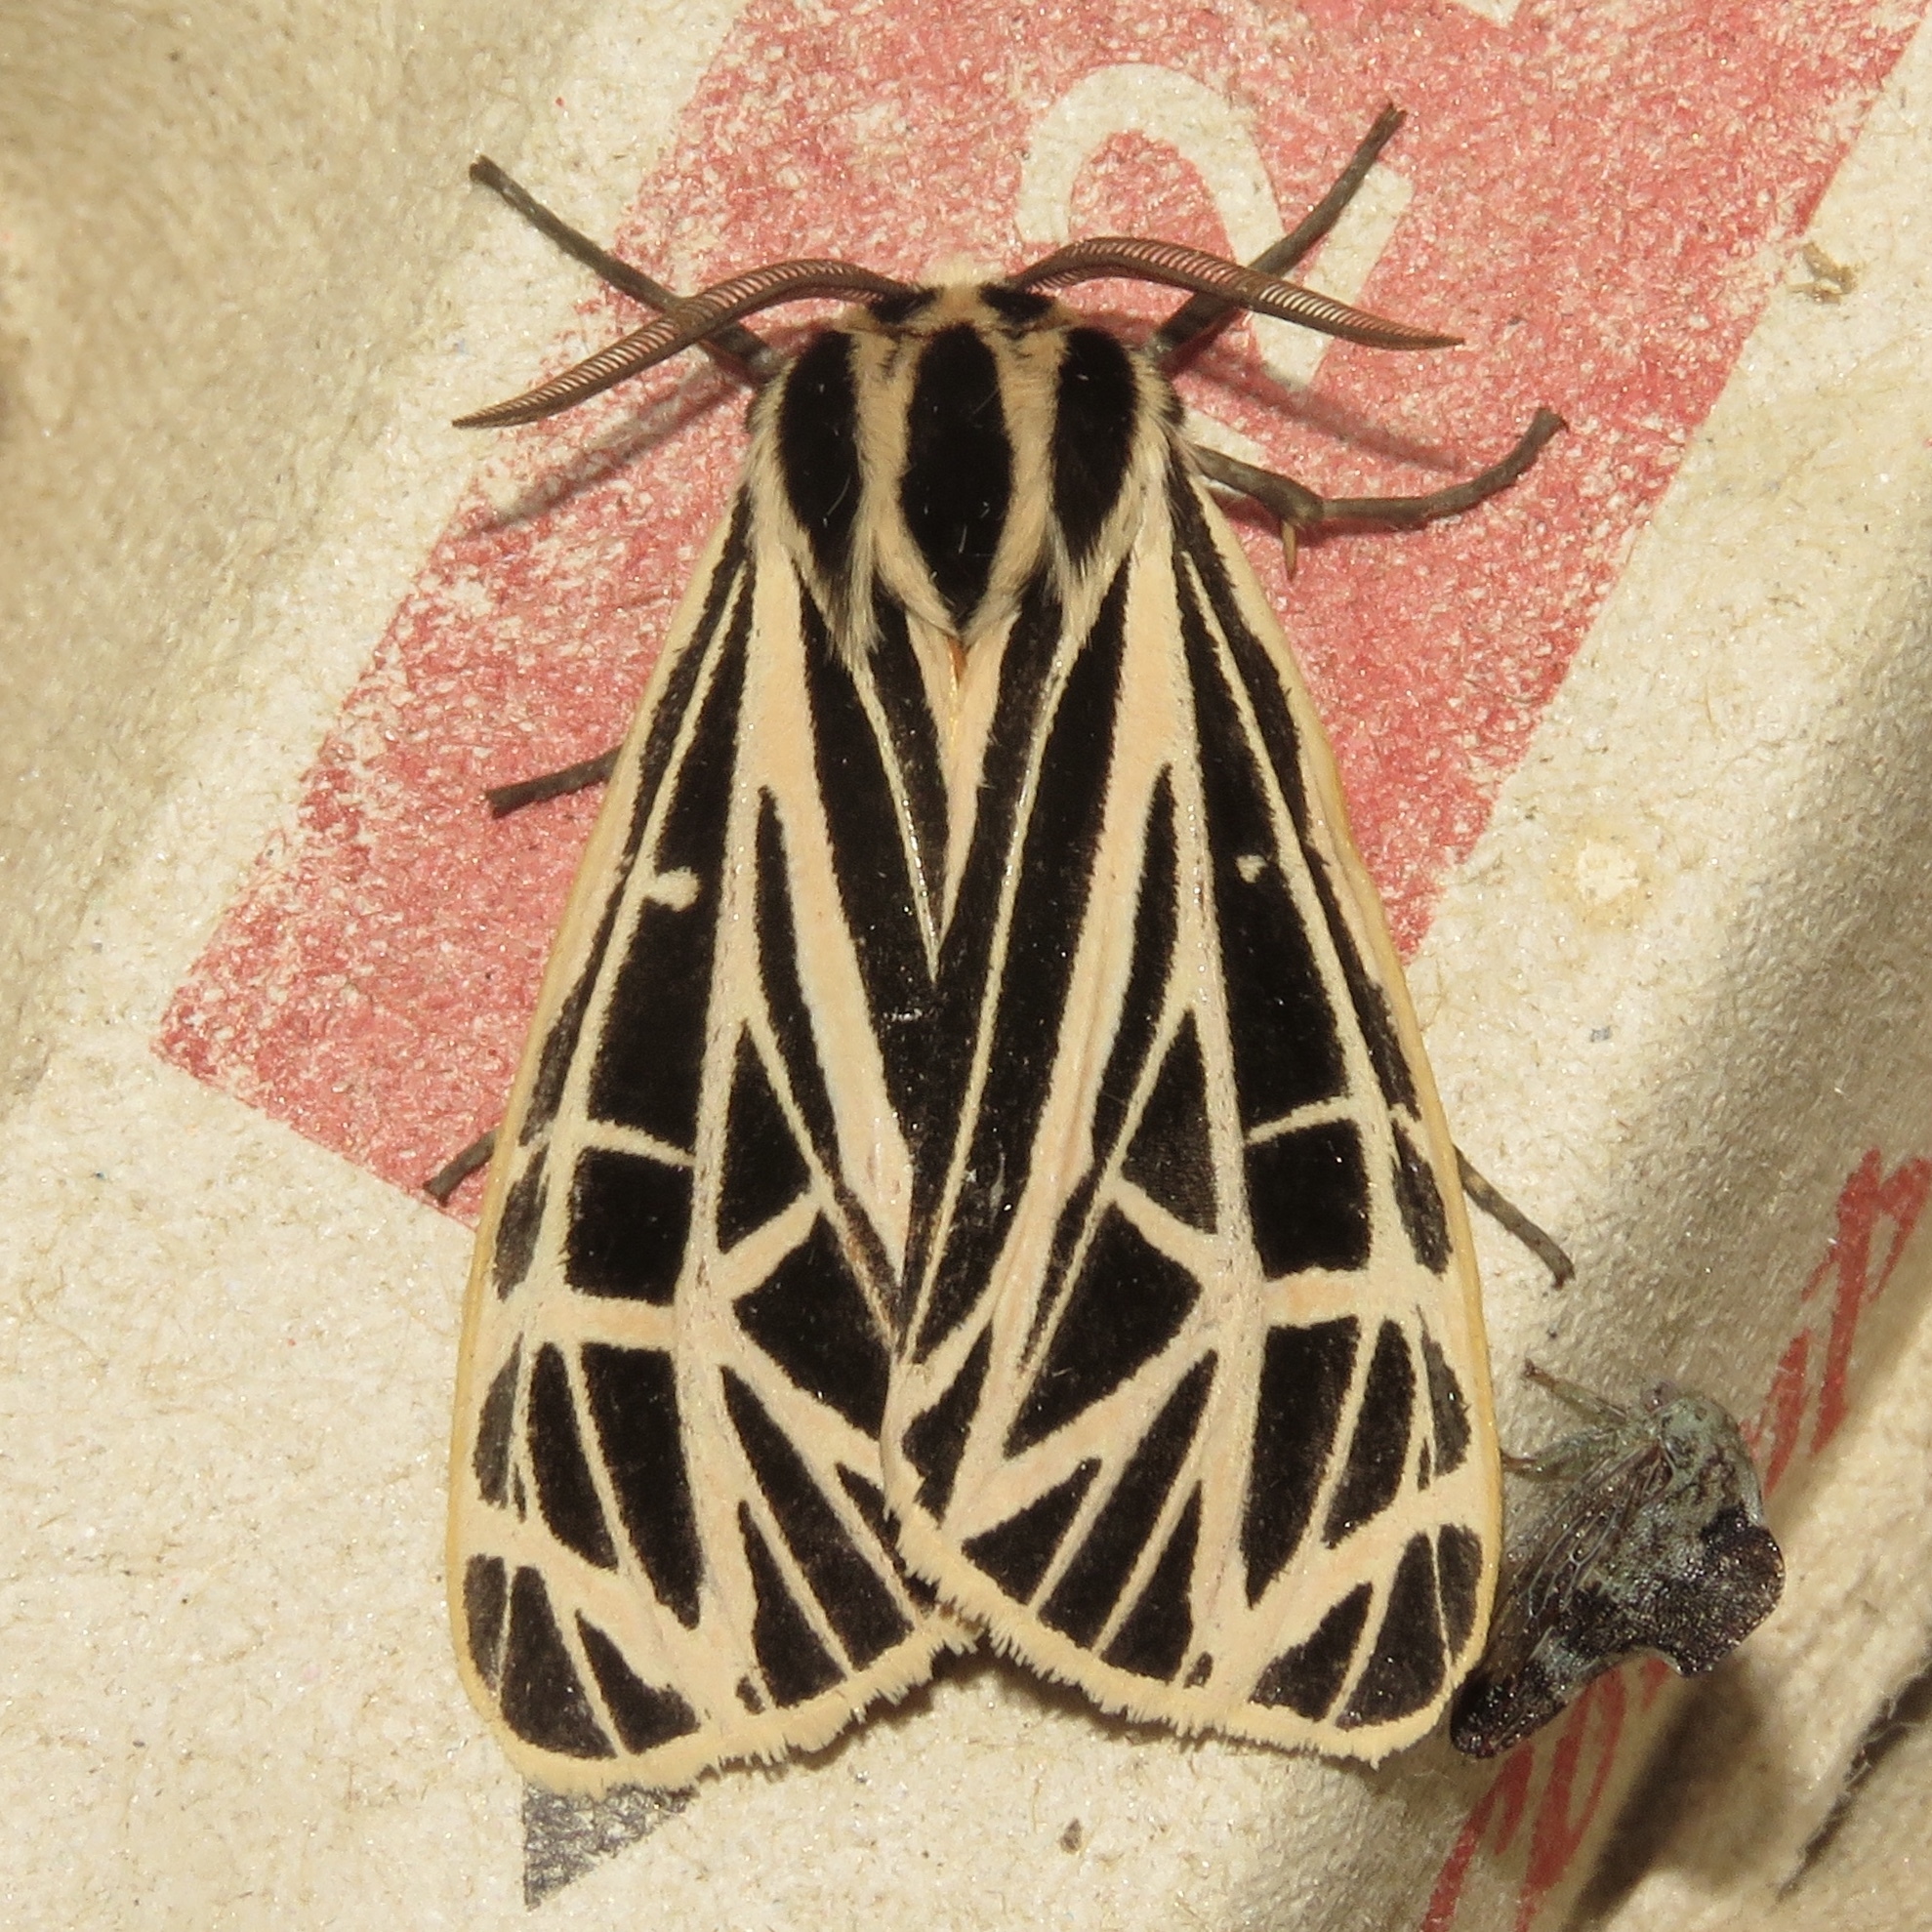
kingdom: Animalia
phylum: Arthropoda
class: Insecta
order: Lepidoptera
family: Erebidae
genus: Grammia
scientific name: Grammia virgo
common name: Virgin tiger moth
